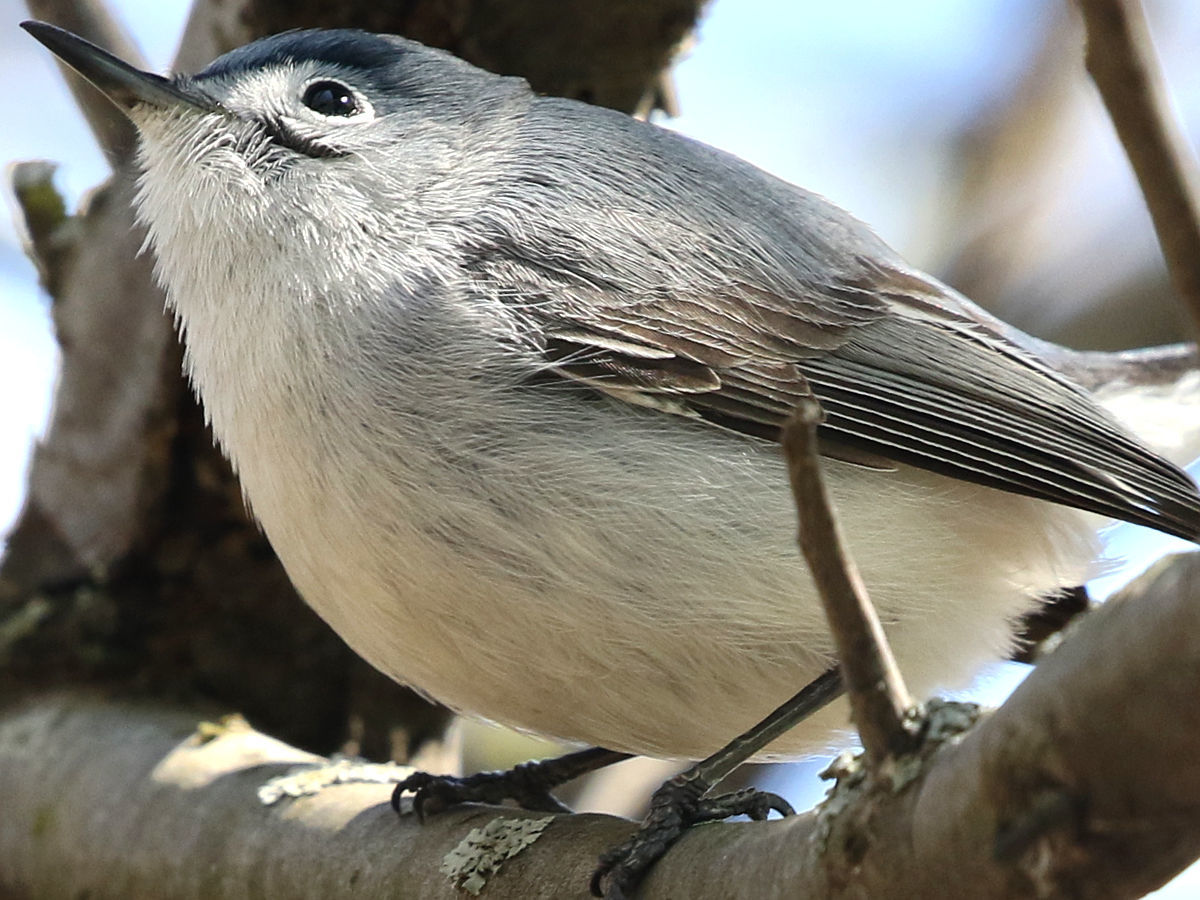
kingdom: Animalia
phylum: Chordata
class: Aves
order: Passeriformes
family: Polioptilidae
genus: Polioptila
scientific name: Polioptila caerulea
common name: Blue-gray gnatcatcher
